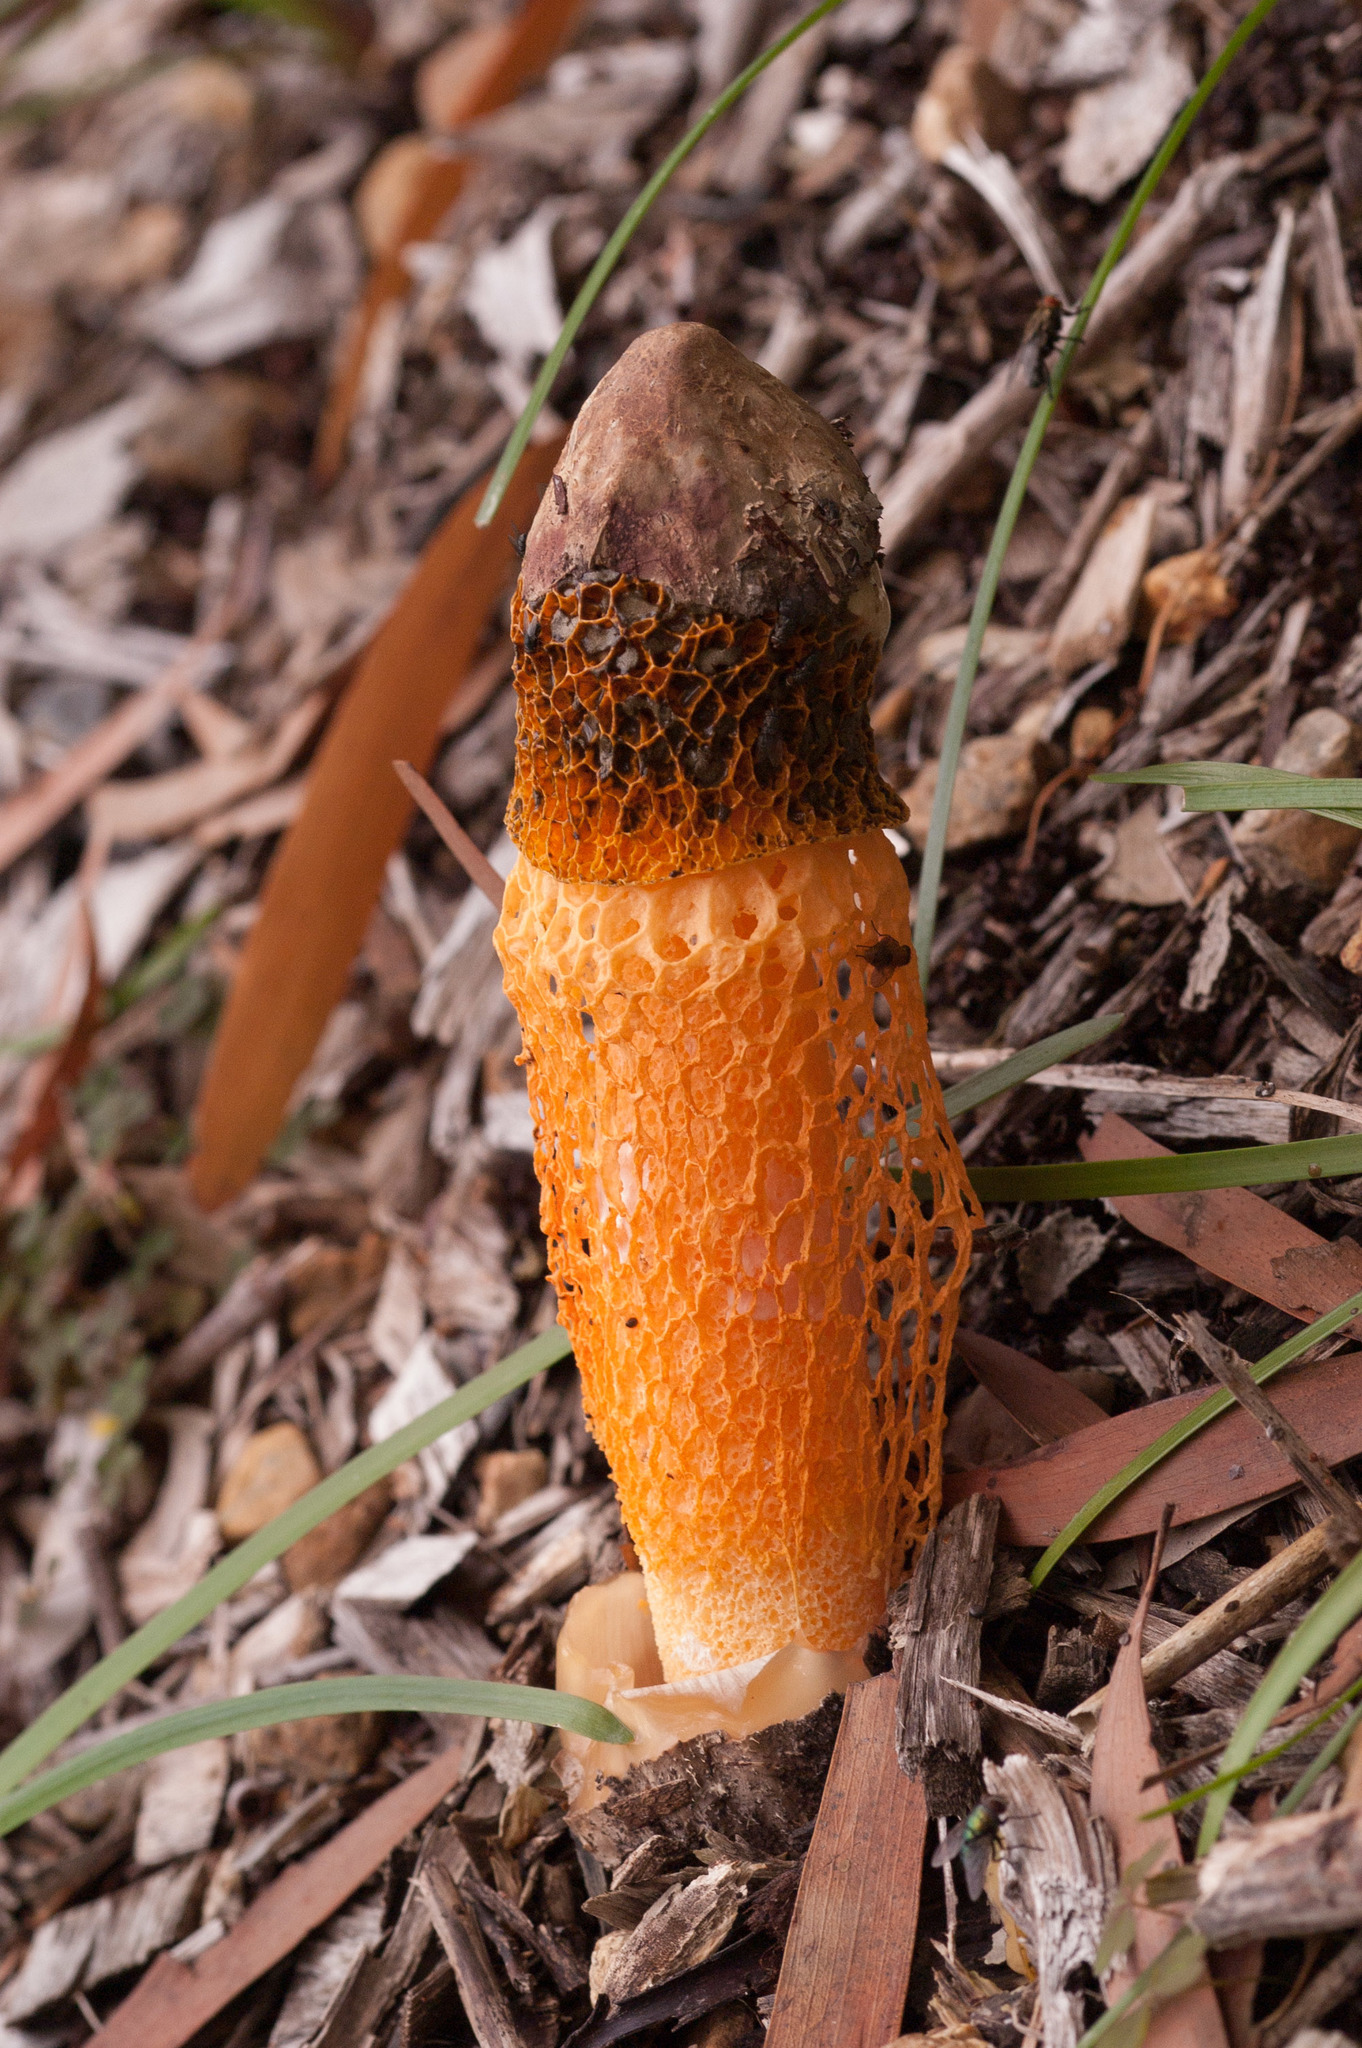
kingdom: Fungi
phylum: Basidiomycota
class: Agaricomycetes
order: Phallales
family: Phallaceae
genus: Phallus
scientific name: Phallus multicolor
